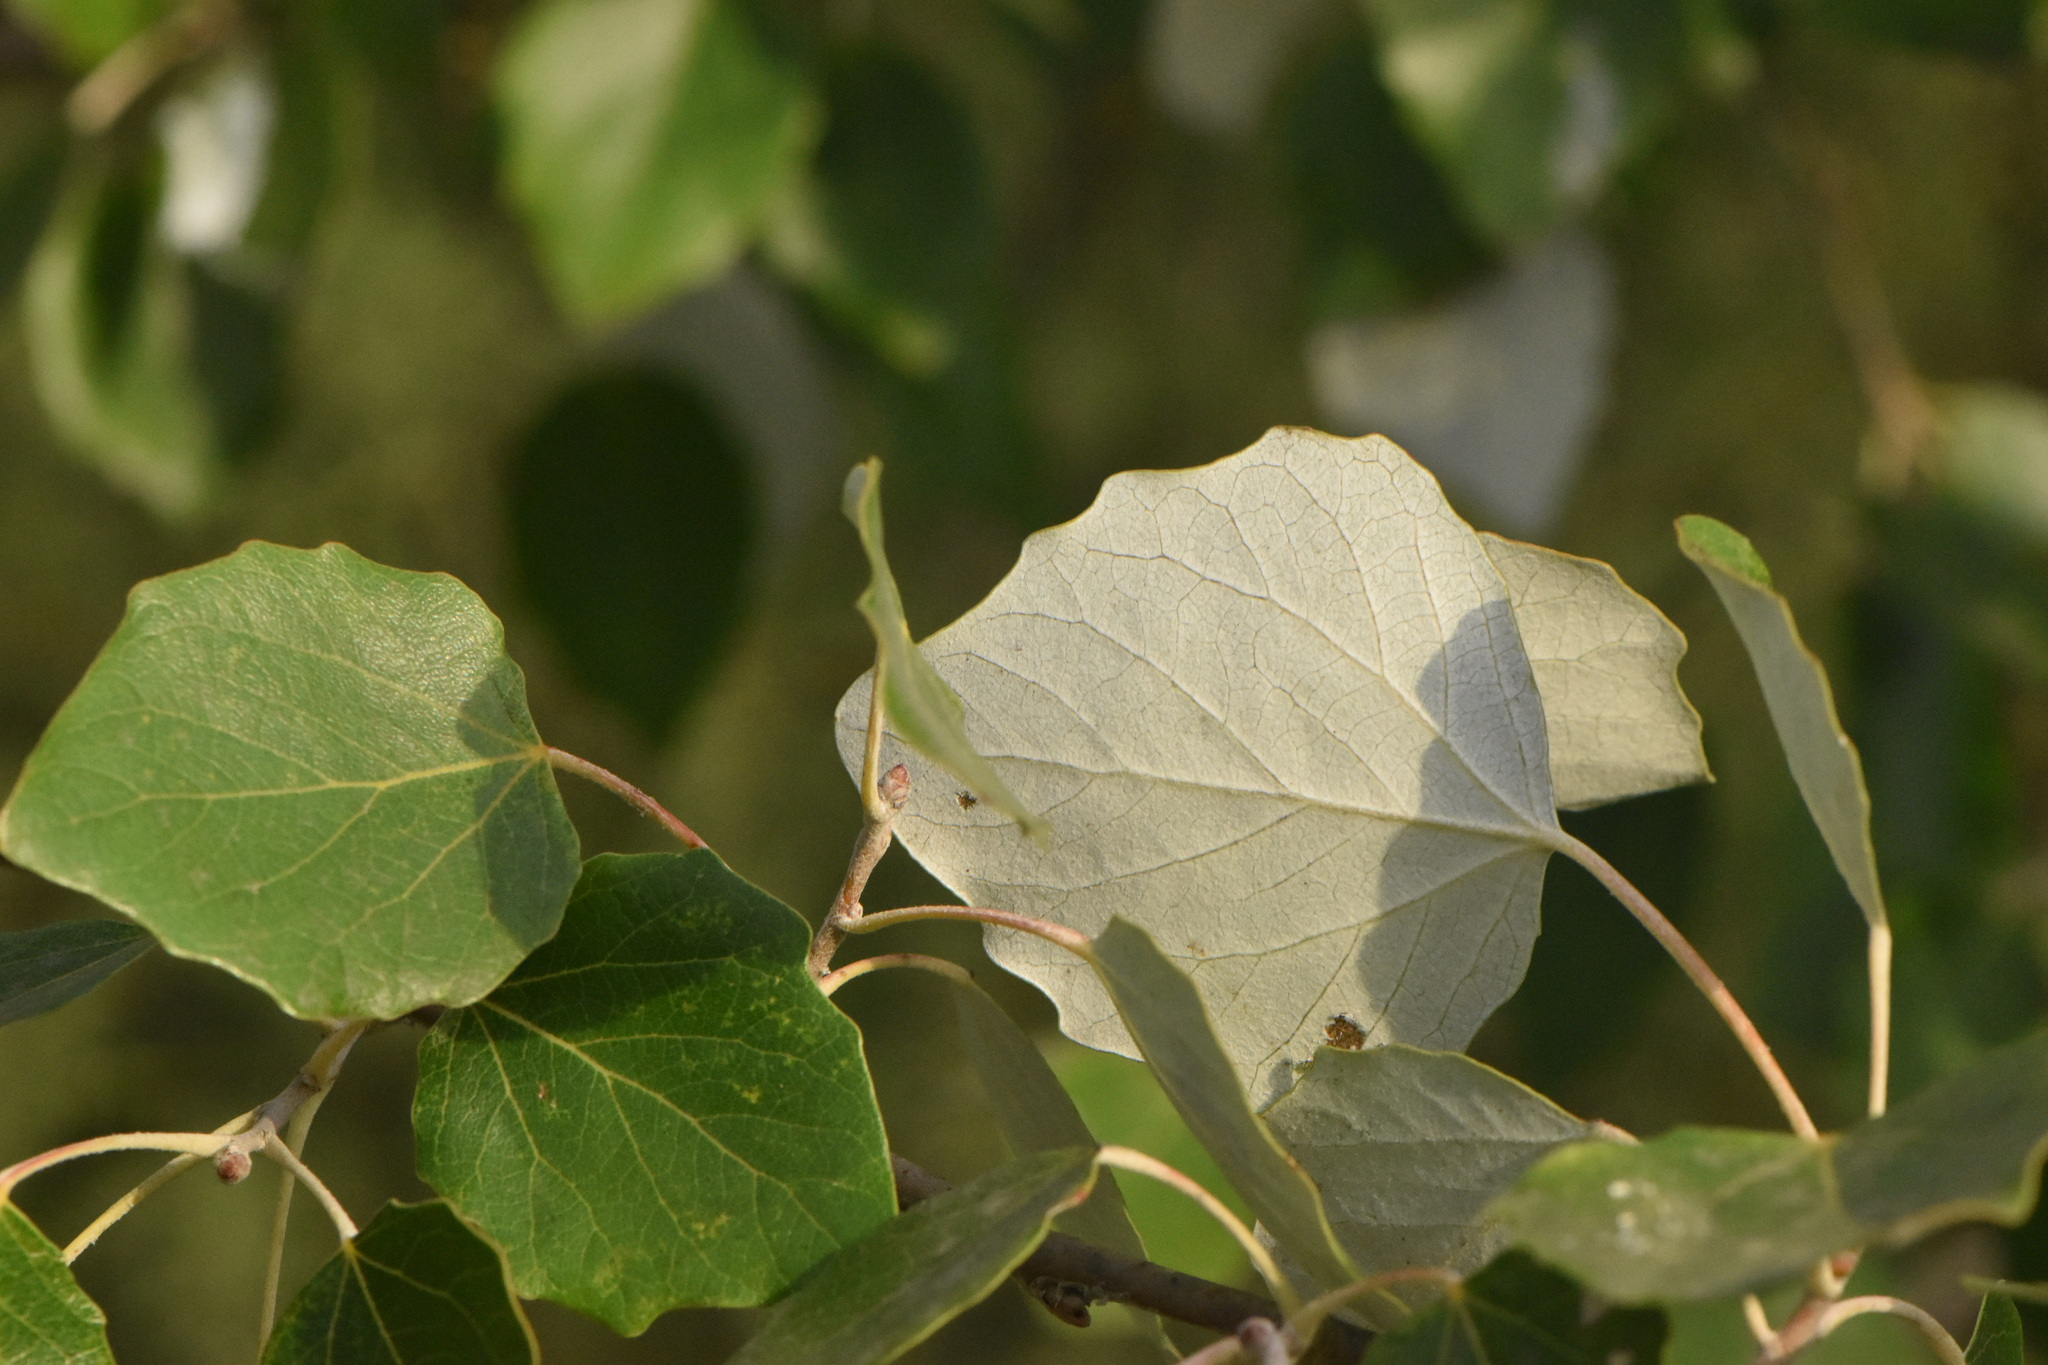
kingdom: Plantae
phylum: Tracheophyta
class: Magnoliopsida
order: Malpighiales
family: Salicaceae
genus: Populus
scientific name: Populus alba
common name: White poplar
